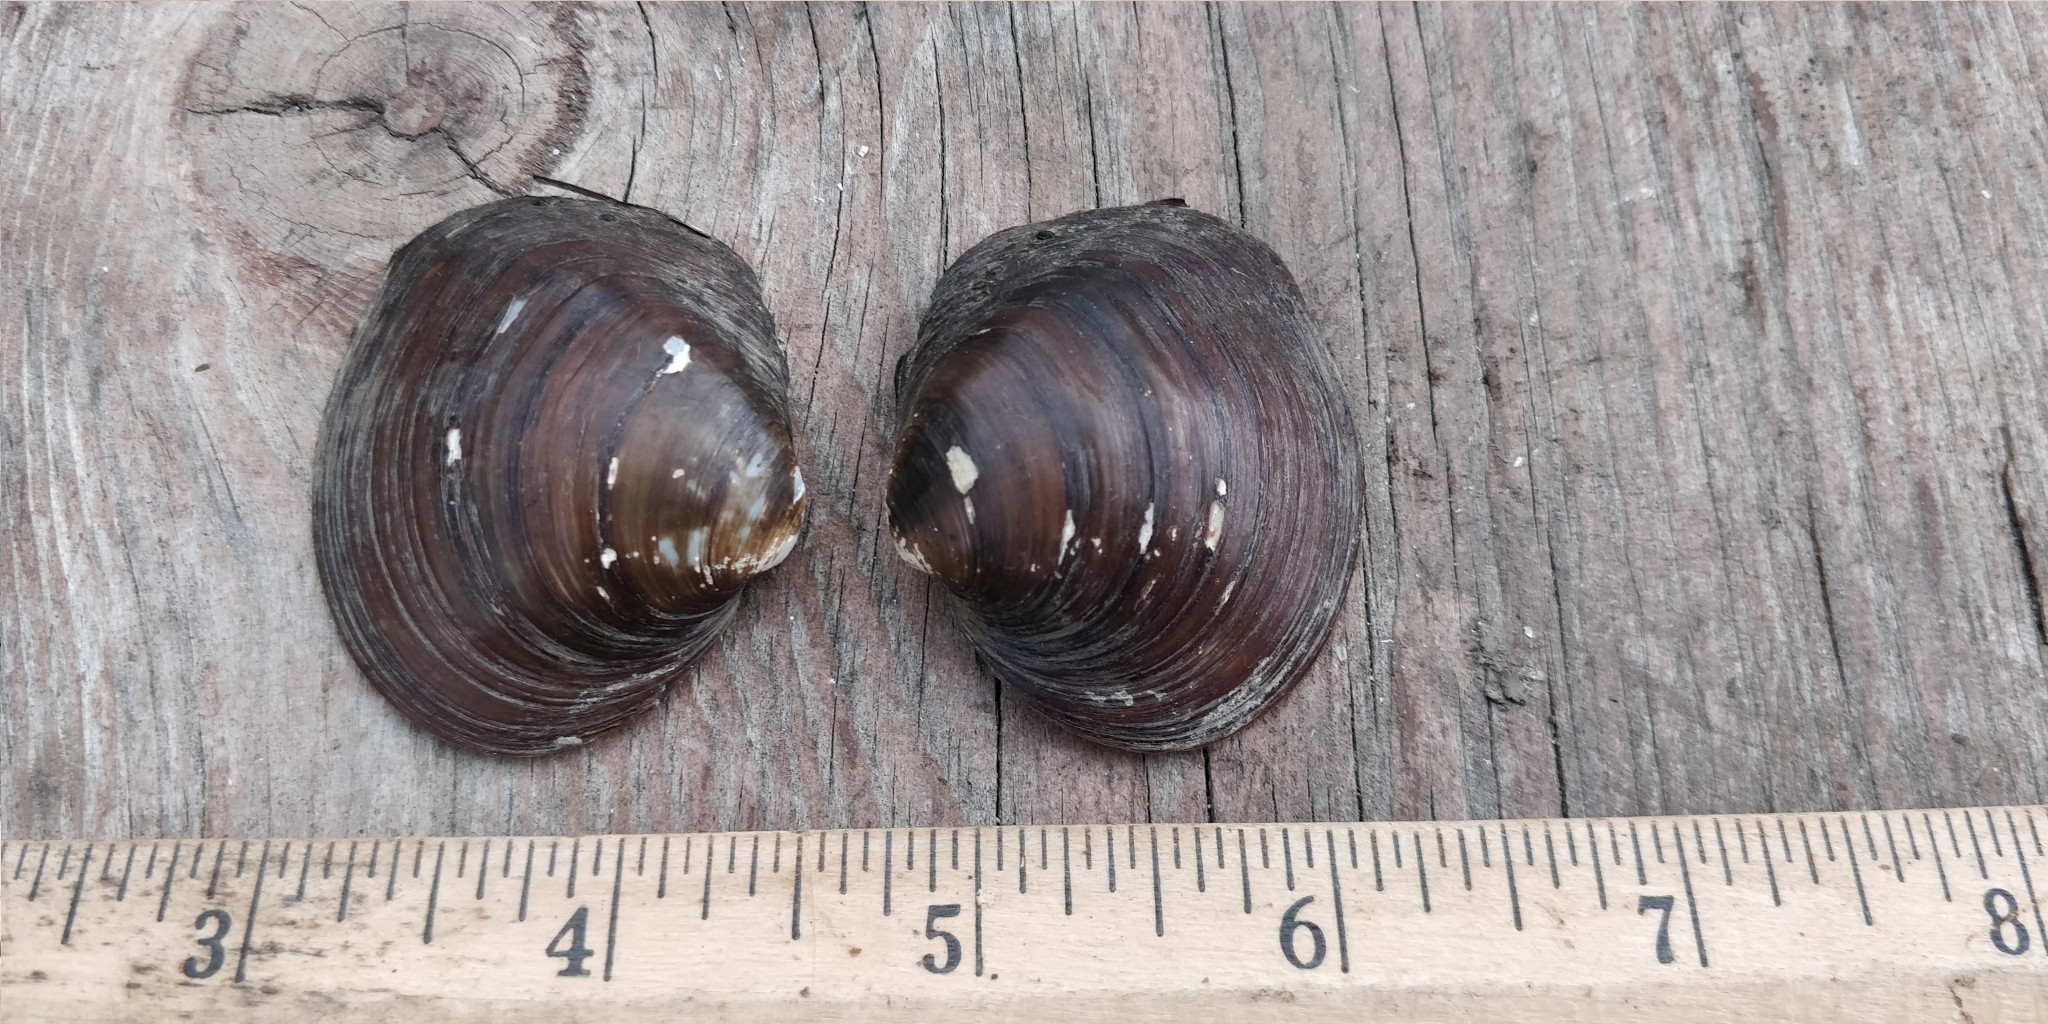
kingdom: Animalia
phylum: Mollusca
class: Bivalvia
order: Unionida
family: Unionidae
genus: Cyclonaias
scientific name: Cyclonaias pustulosa
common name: Pimpleback
